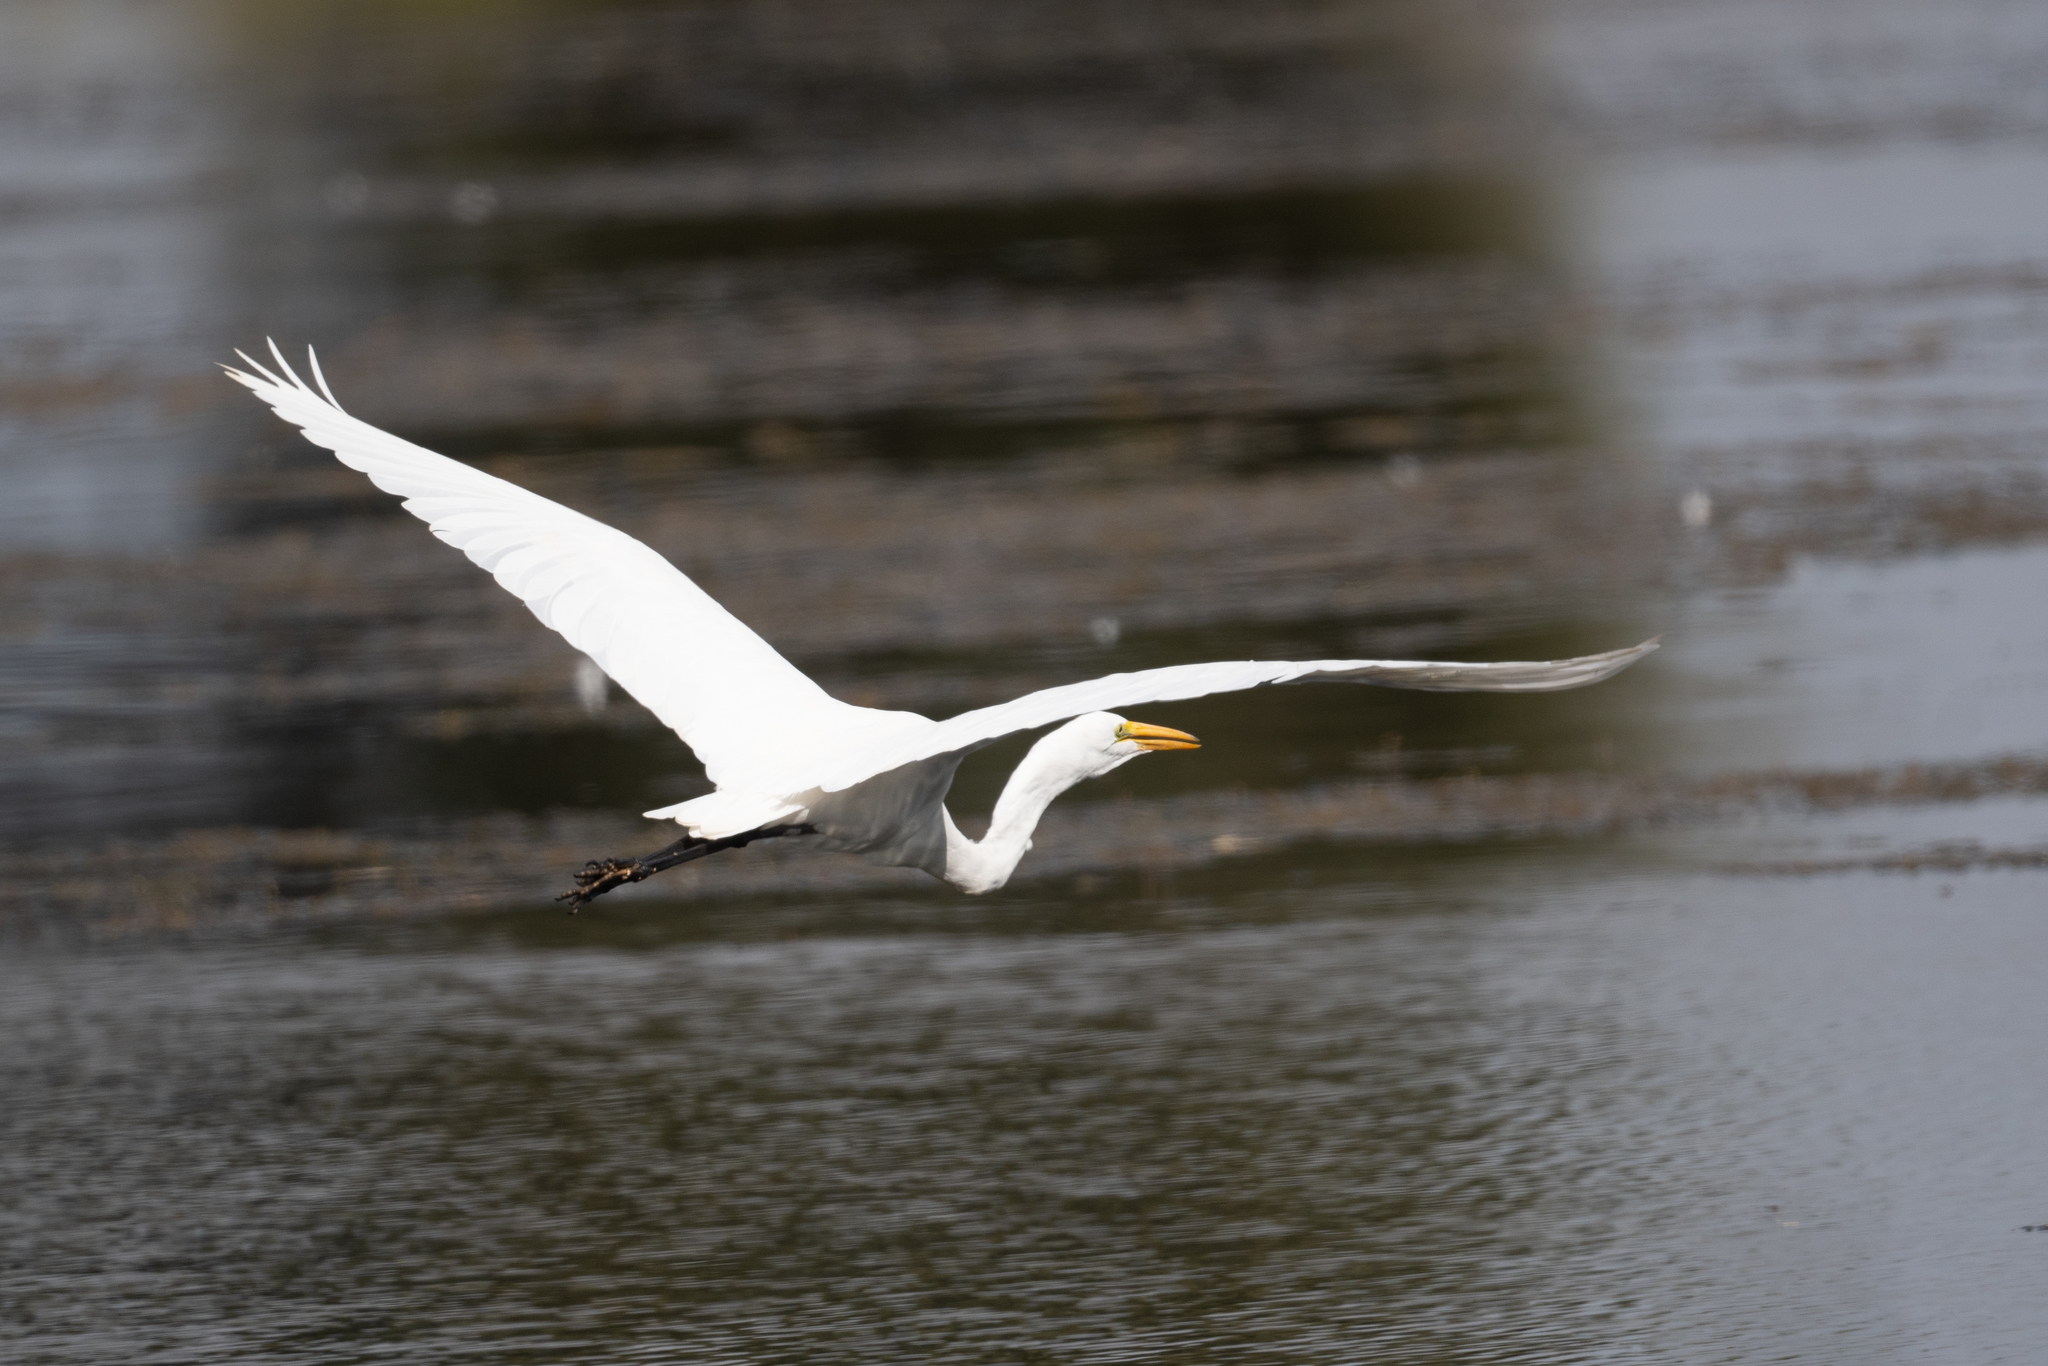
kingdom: Animalia
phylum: Chordata
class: Aves
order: Pelecaniformes
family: Ardeidae
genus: Ardea
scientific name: Ardea alba
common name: Great egret
